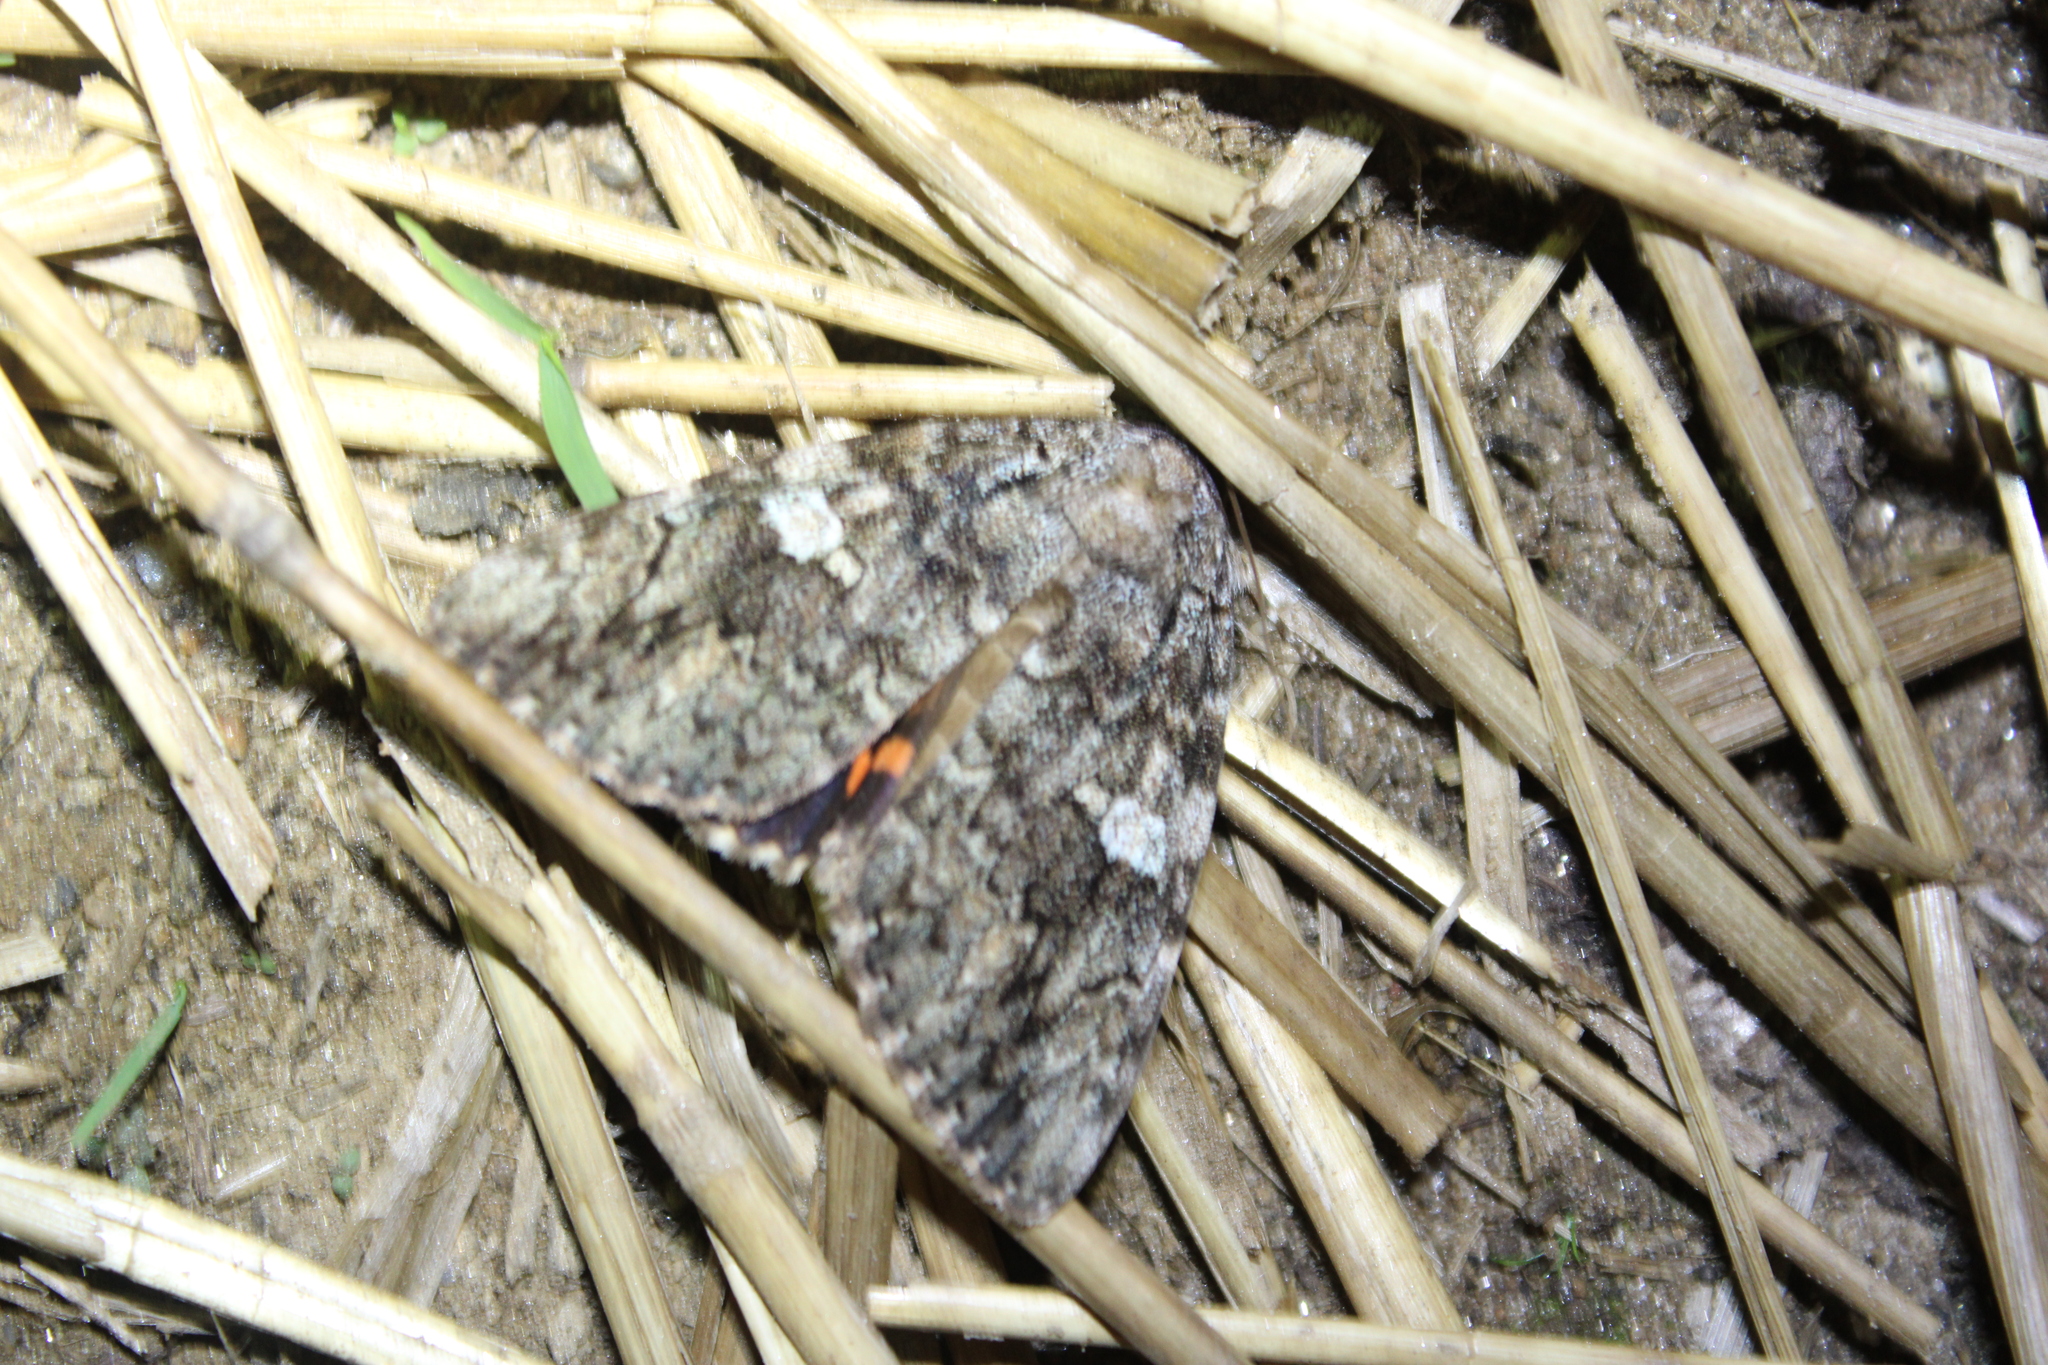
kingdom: Animalia
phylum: Arthropoda
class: Insecta
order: Lepidoptera
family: Erebidae
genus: Catocala
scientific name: Catocala ilia
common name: Ilia underwing
